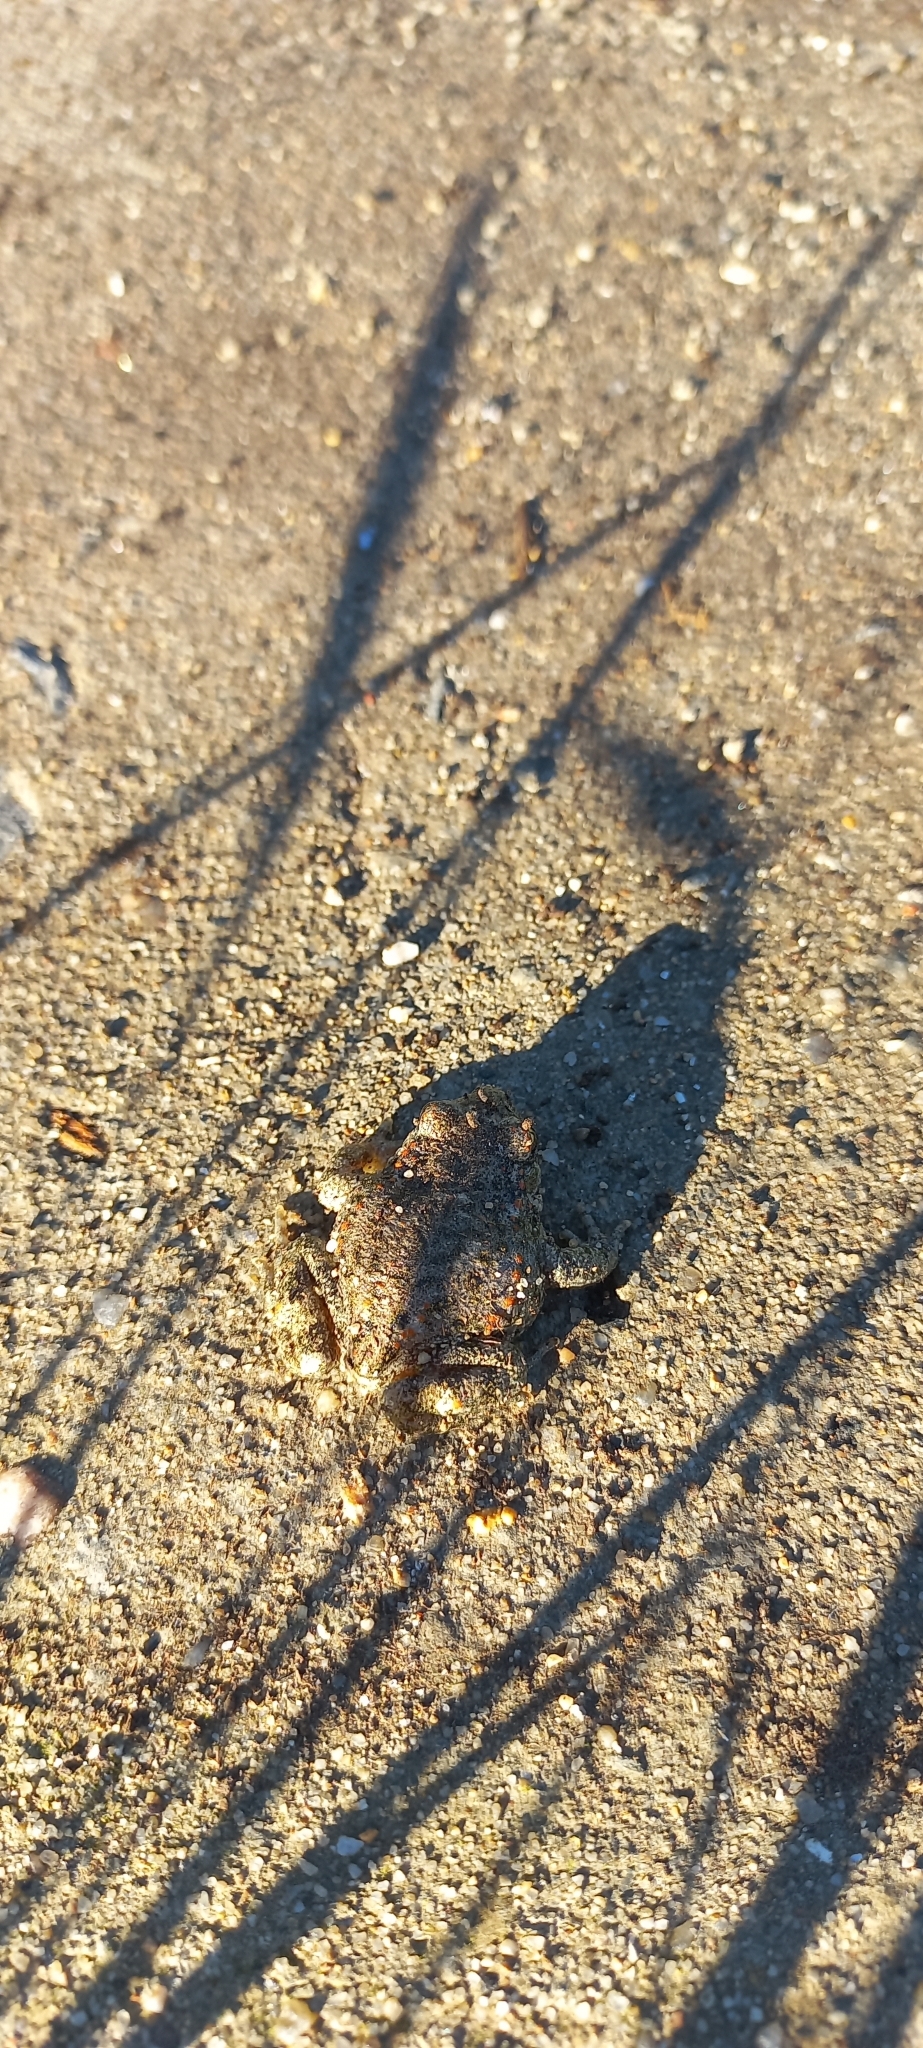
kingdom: Animalia
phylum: Chordata
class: Amphibia
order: Anura
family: Bufonidae
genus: Epidalea
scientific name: Epidalea calamita
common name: Natterjack toad
